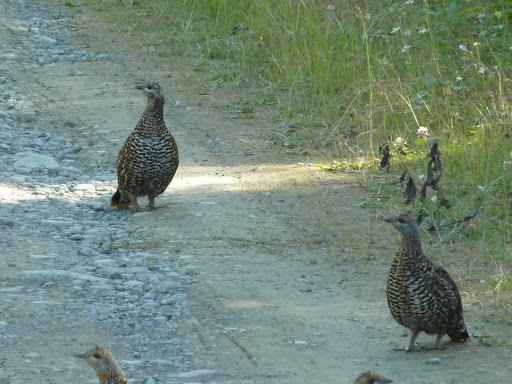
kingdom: Animalia
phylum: Chordata
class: Aves
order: Galliformes
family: Phasianidae
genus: Canachites
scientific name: Canachites canadensis
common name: Spruce grouse
